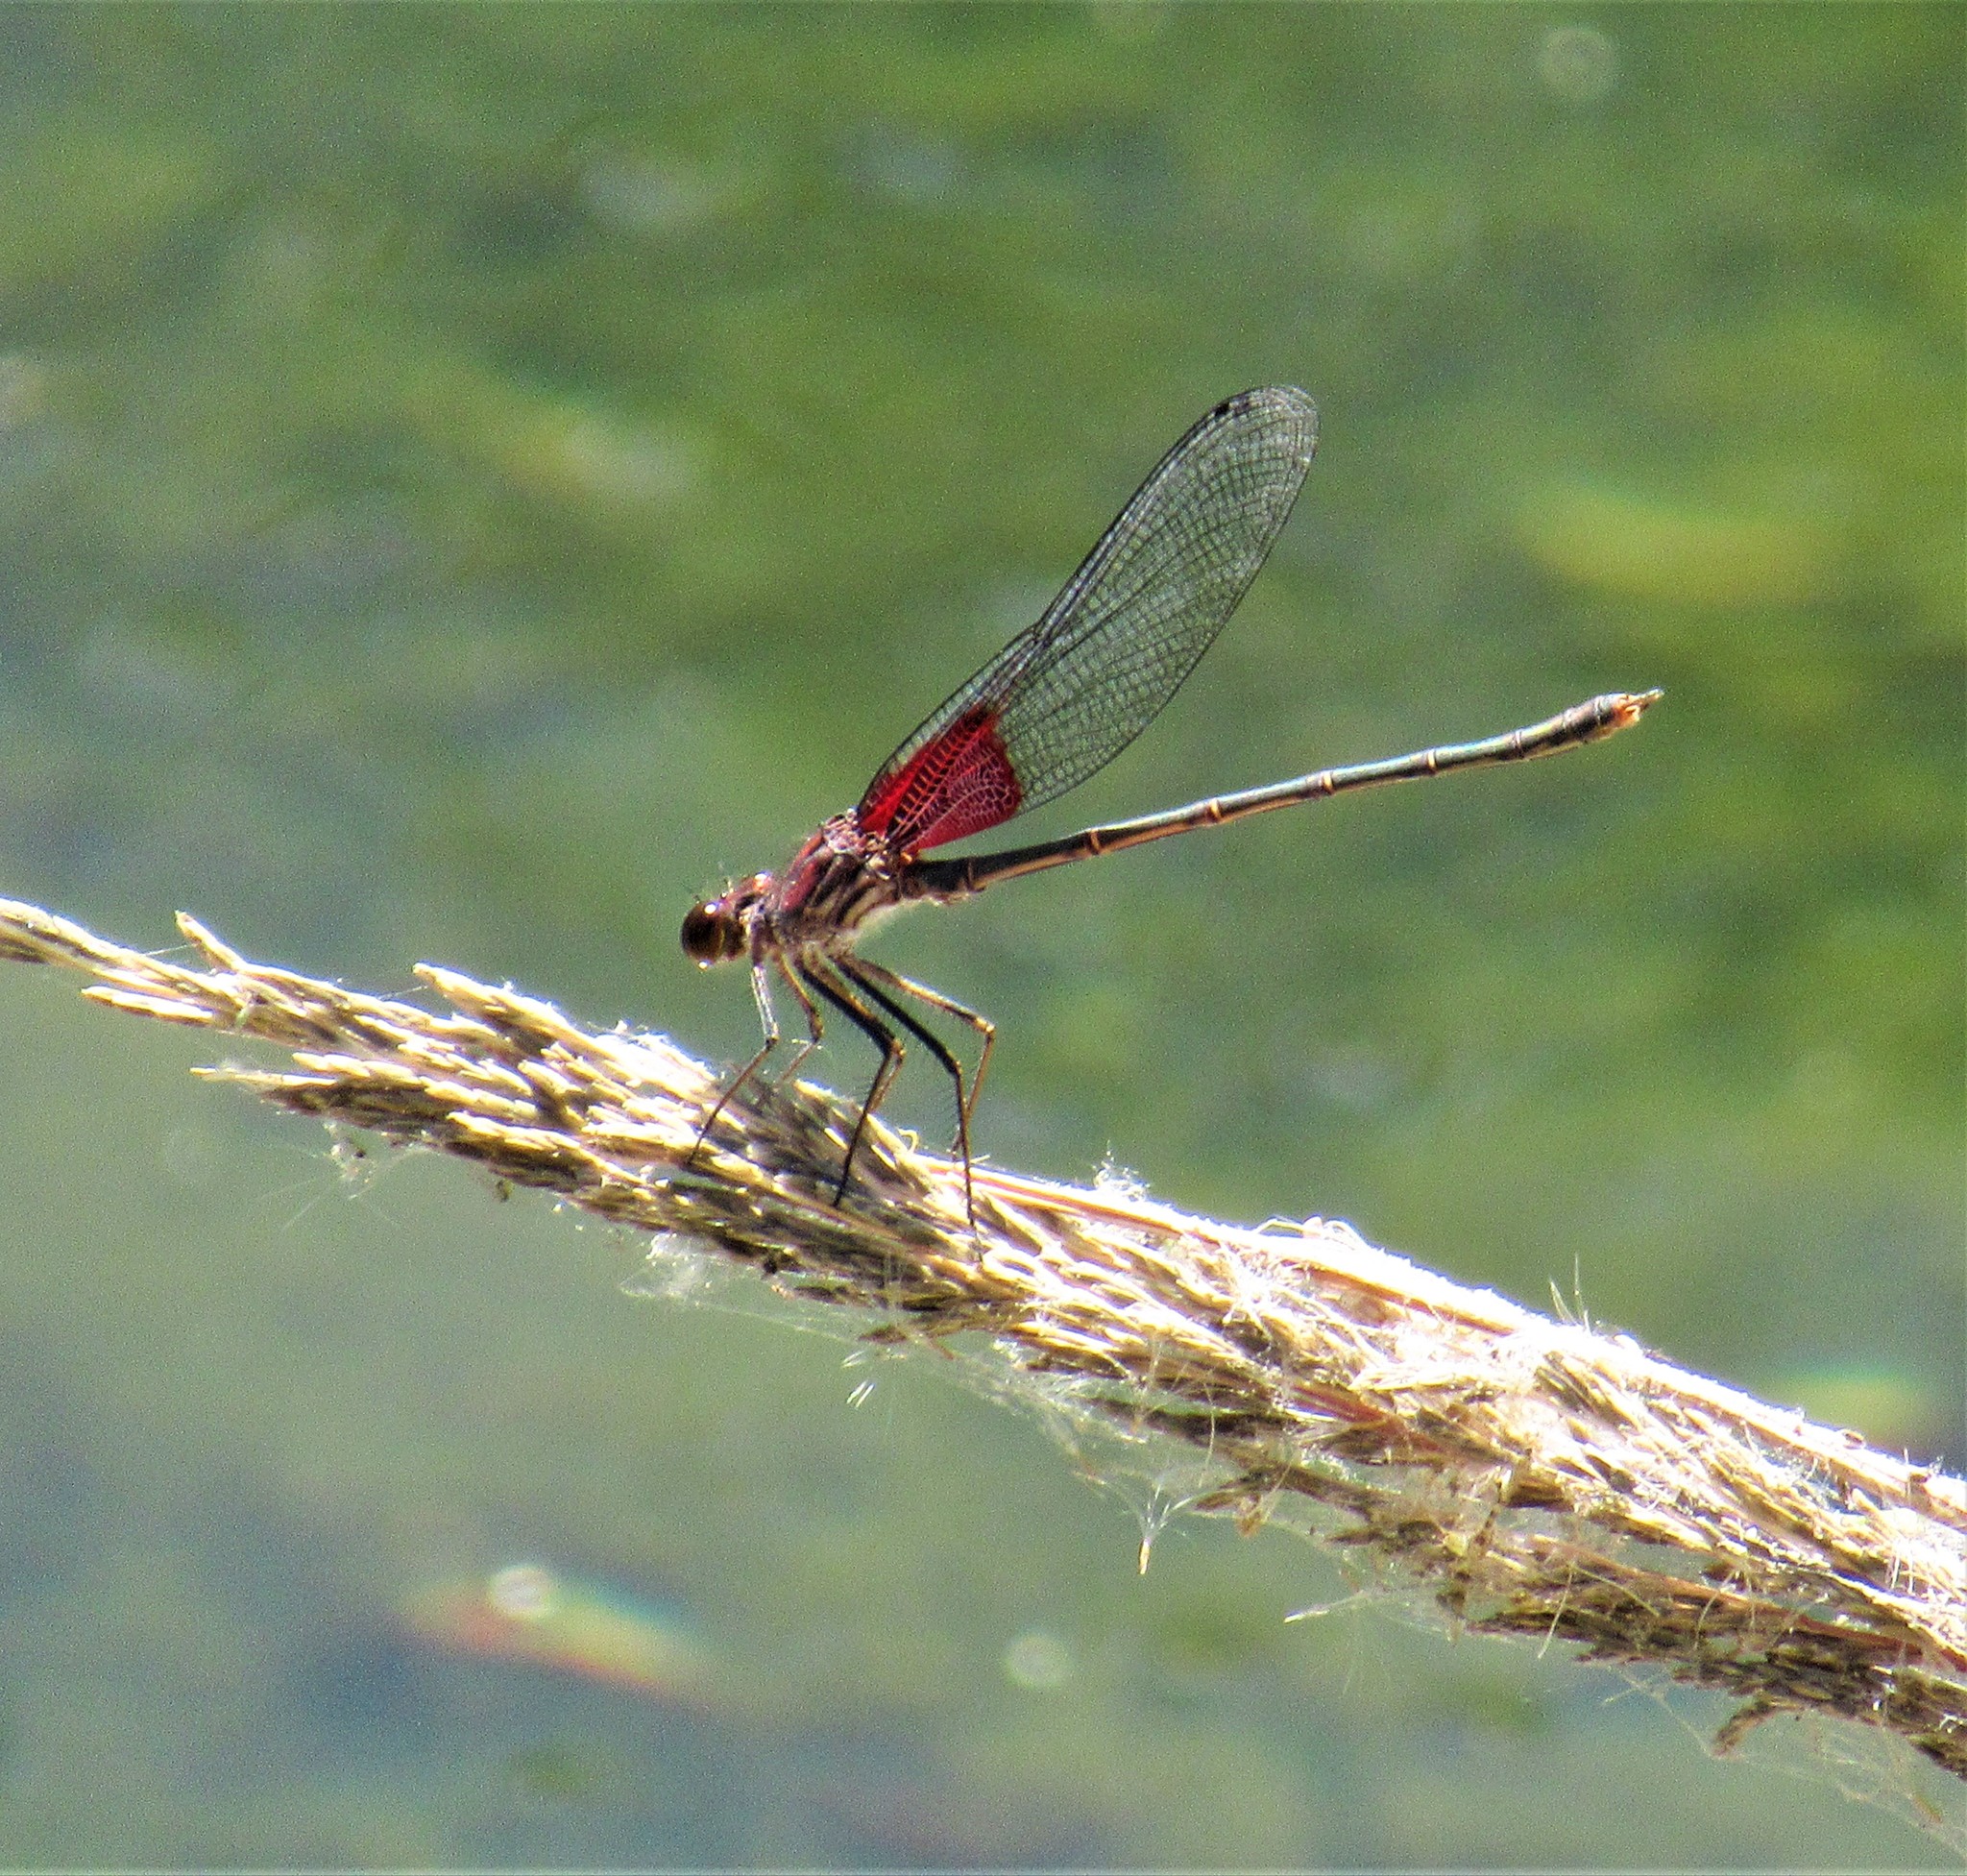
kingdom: Animalia
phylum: Arthropoda
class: Insecta
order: Odonata
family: Calopterygidae
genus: Hetaerina
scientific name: Hetaerina americana
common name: American rubyspot
